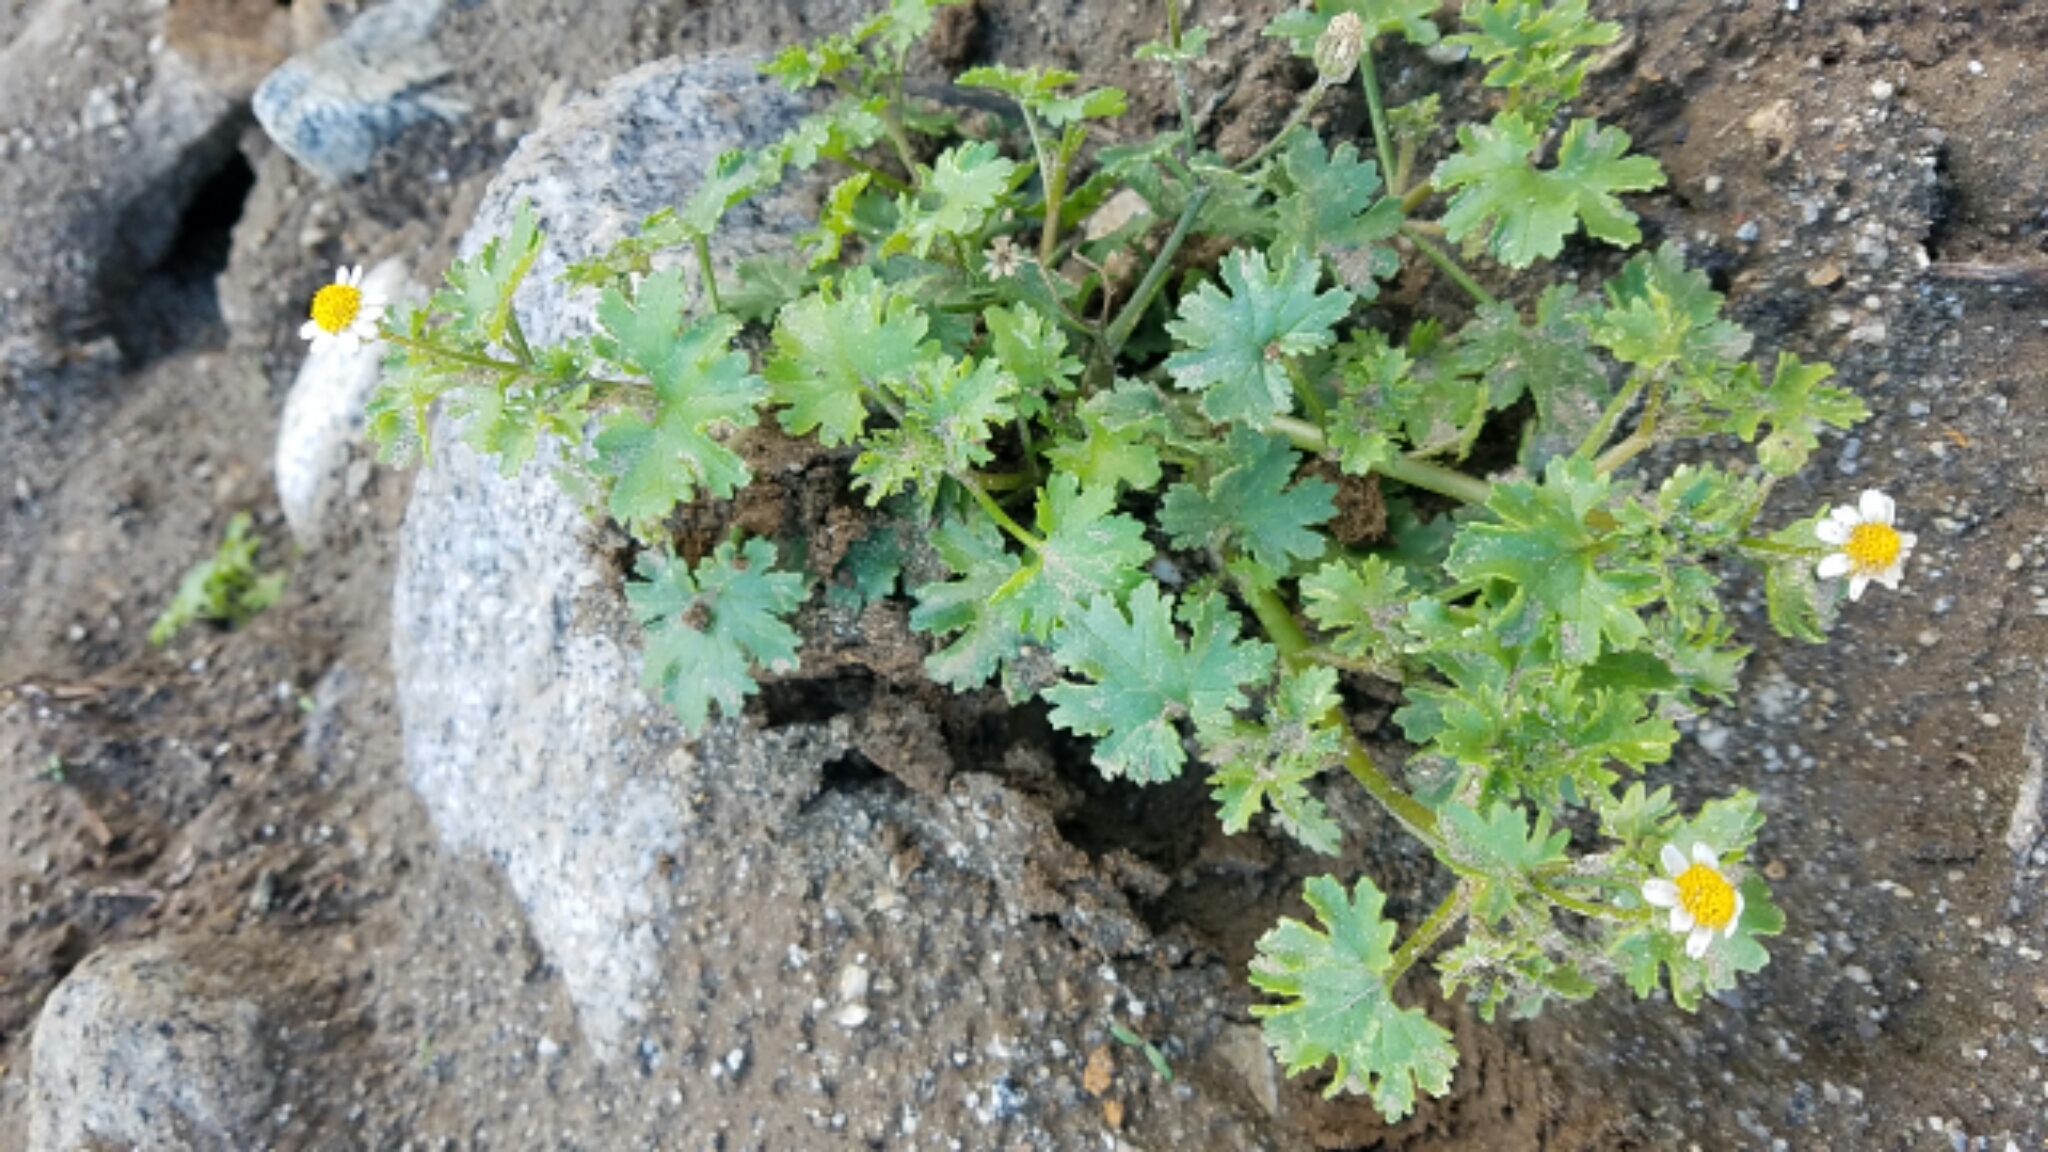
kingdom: Plantae
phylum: Tracheophyta
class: Magnoliopsida
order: Asterales
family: Asteraceae
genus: Laphamia
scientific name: Laphamia emoryi
